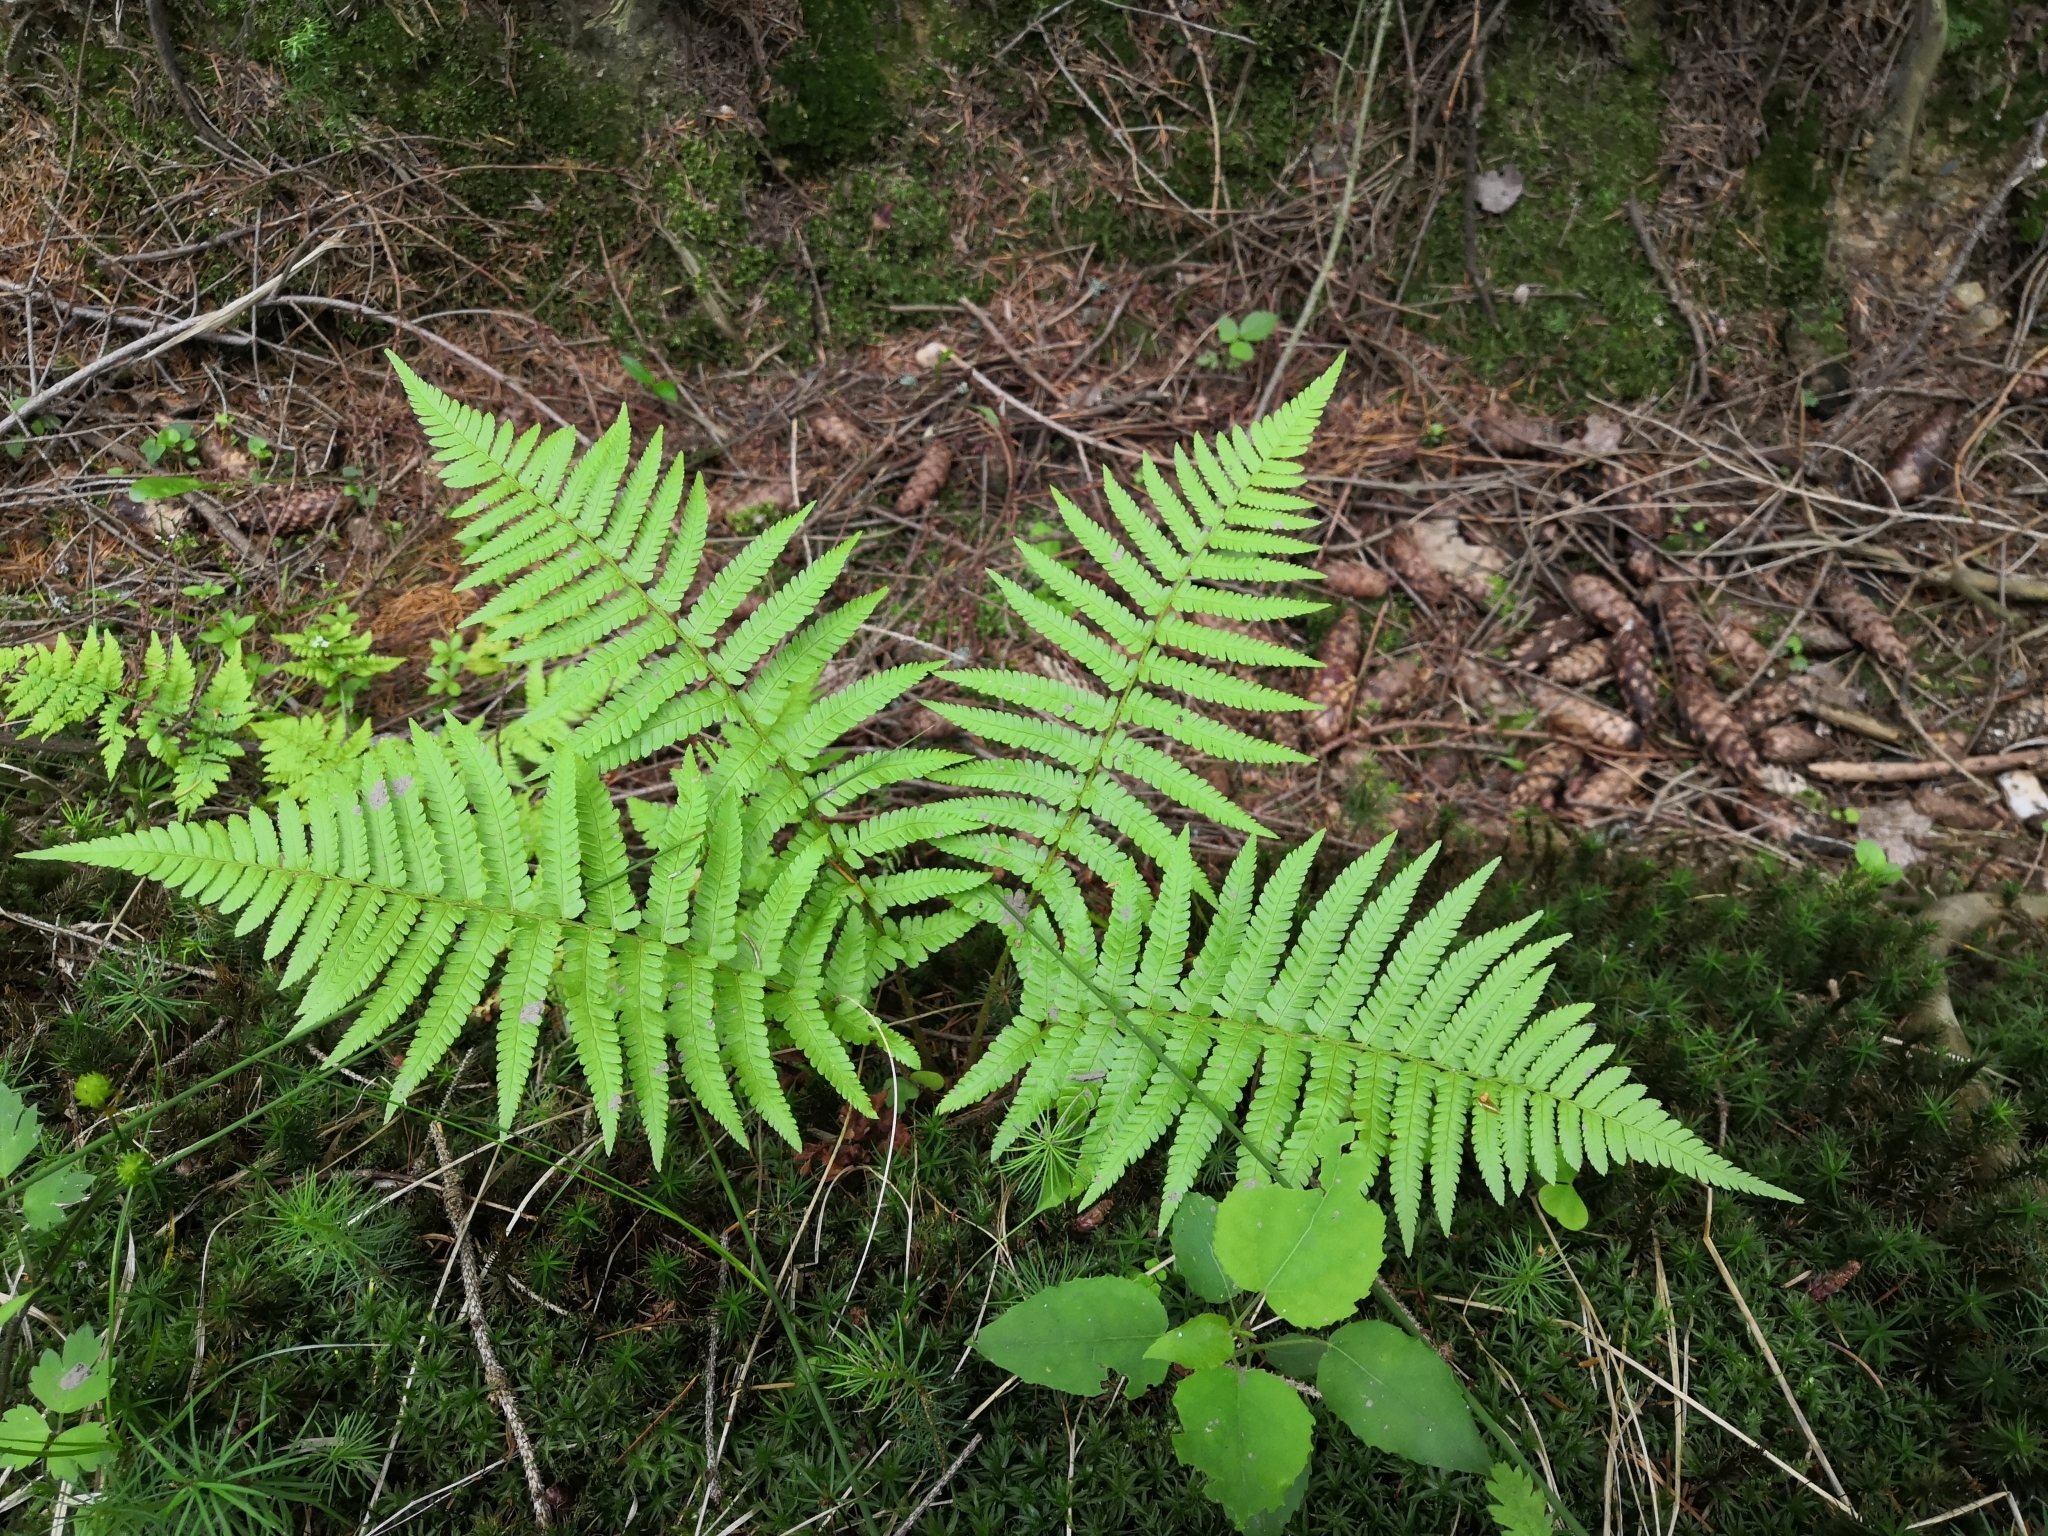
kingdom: Plantae
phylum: Tracheophyta
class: Polypodiopsida
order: Polypodiales
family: Dryopteridaceae
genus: Dryopteris
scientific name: Dryopteris filix-mas
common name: Male fern
